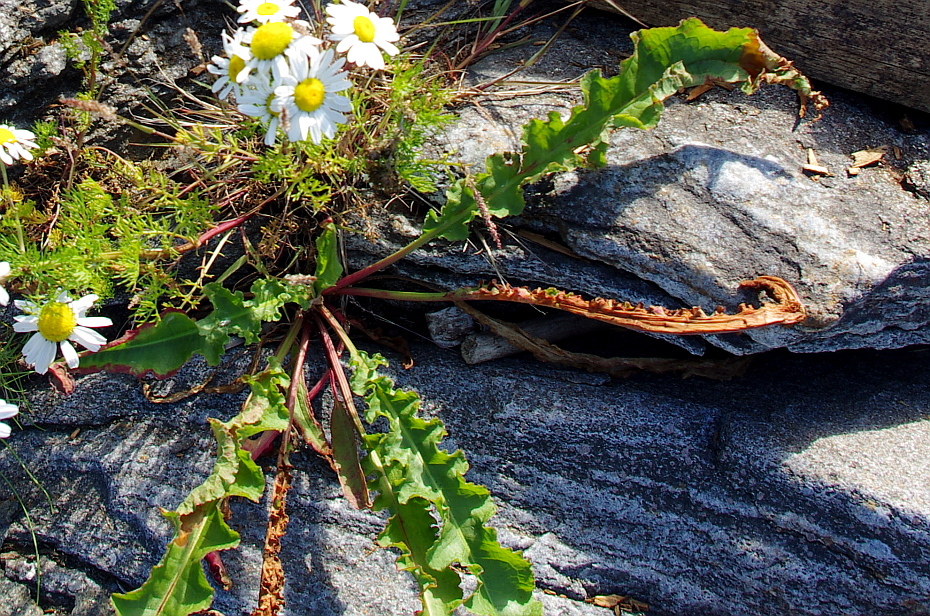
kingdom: Plantae
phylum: Tracheophyta
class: Magnoliopsida
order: Caryophyllales
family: Polygonaceae
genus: Rumex
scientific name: Rumex pseudonatronatus
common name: Field dock
